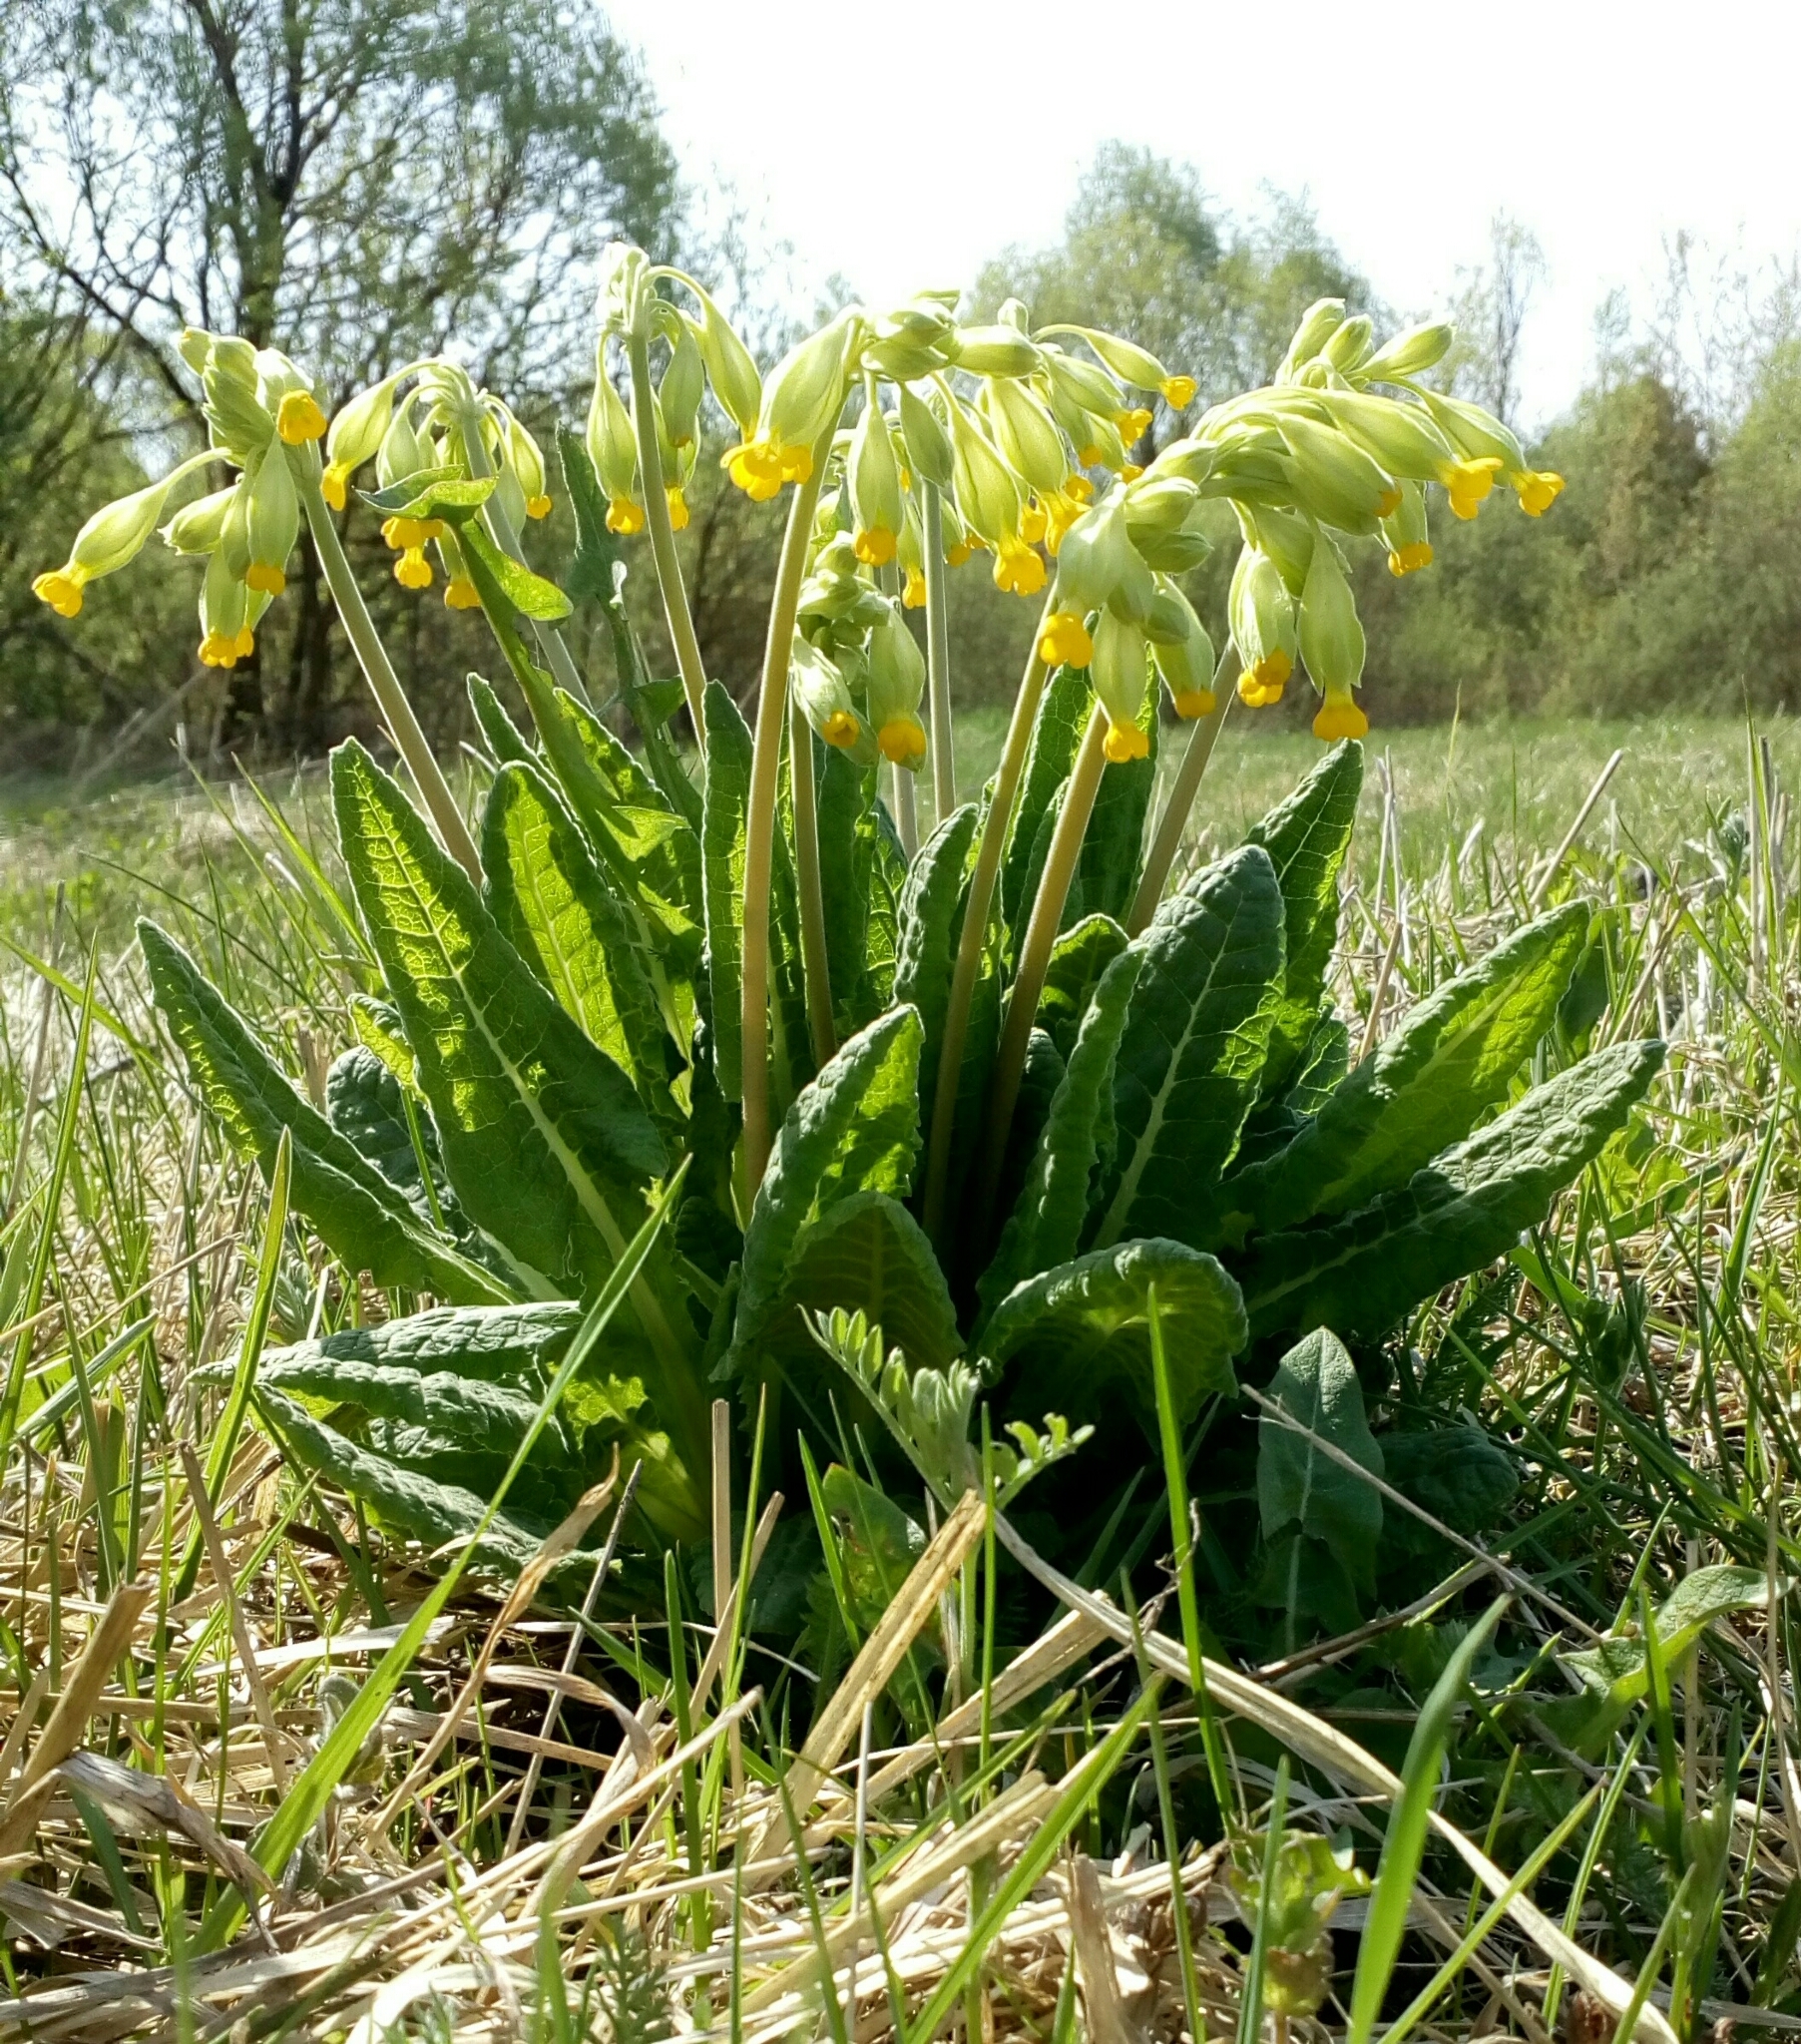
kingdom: Plantae
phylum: Tracheophyta
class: Magnoliopsida
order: Ericales
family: Primulaceae
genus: Primula
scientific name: Primula veris
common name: Cowslip
